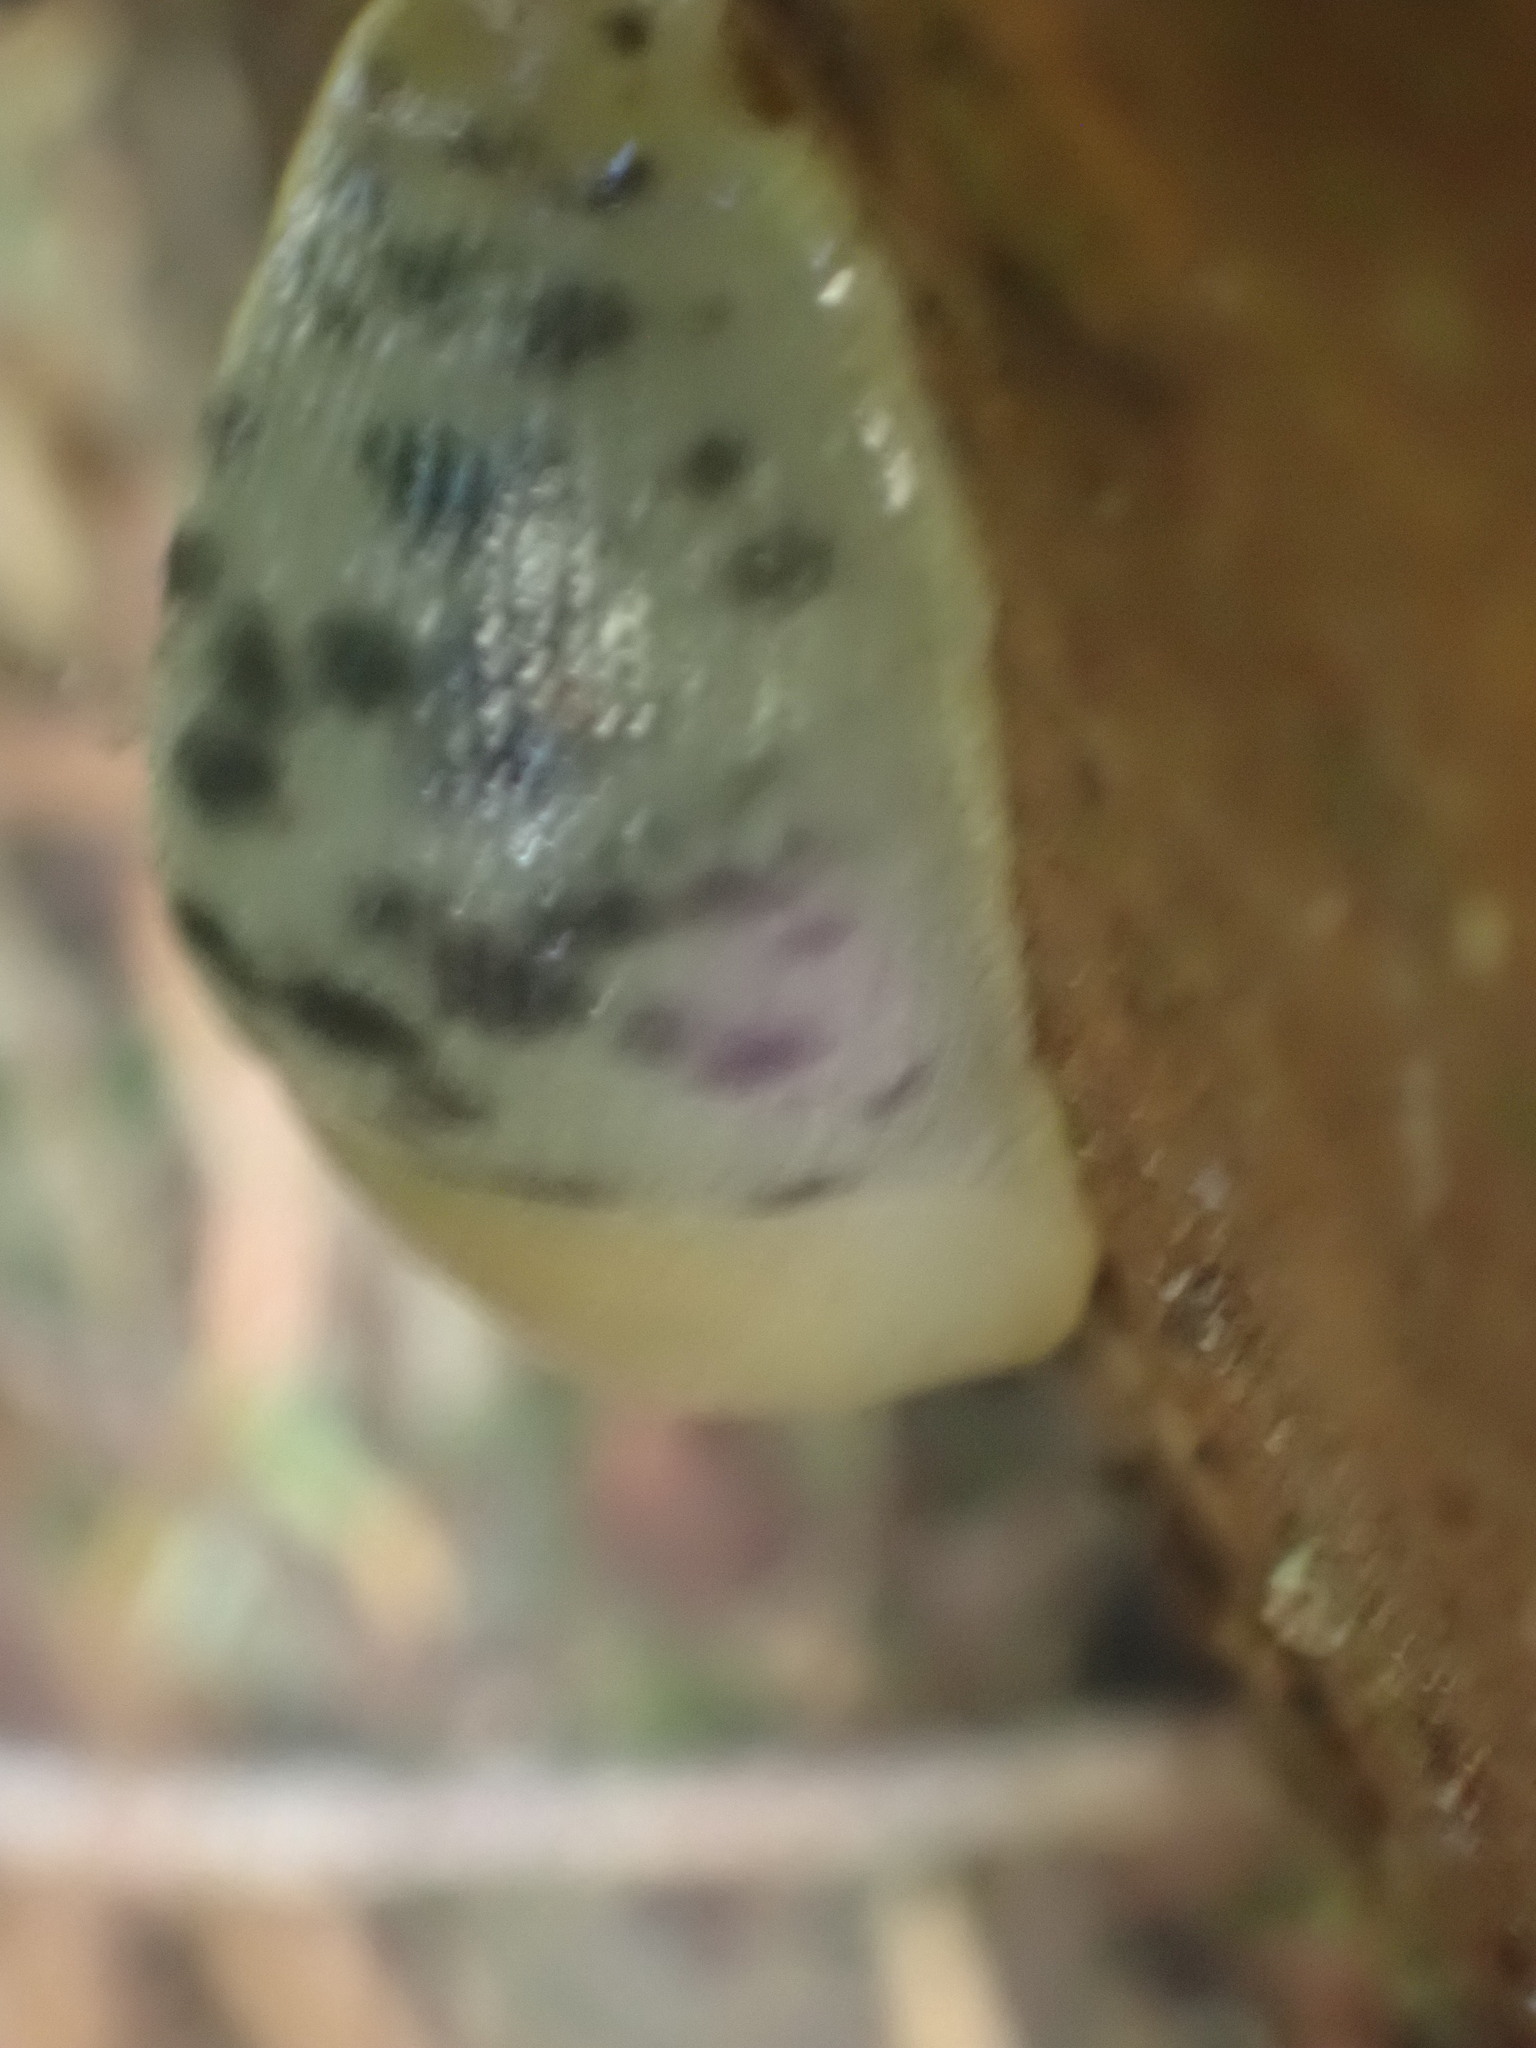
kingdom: Animalia
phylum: Mollusca
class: Gastropoda
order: Stylommatophora
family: Ariolimacidae
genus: Ariolimax
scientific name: Ariolimax columbianus
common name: Pacific banana slug
